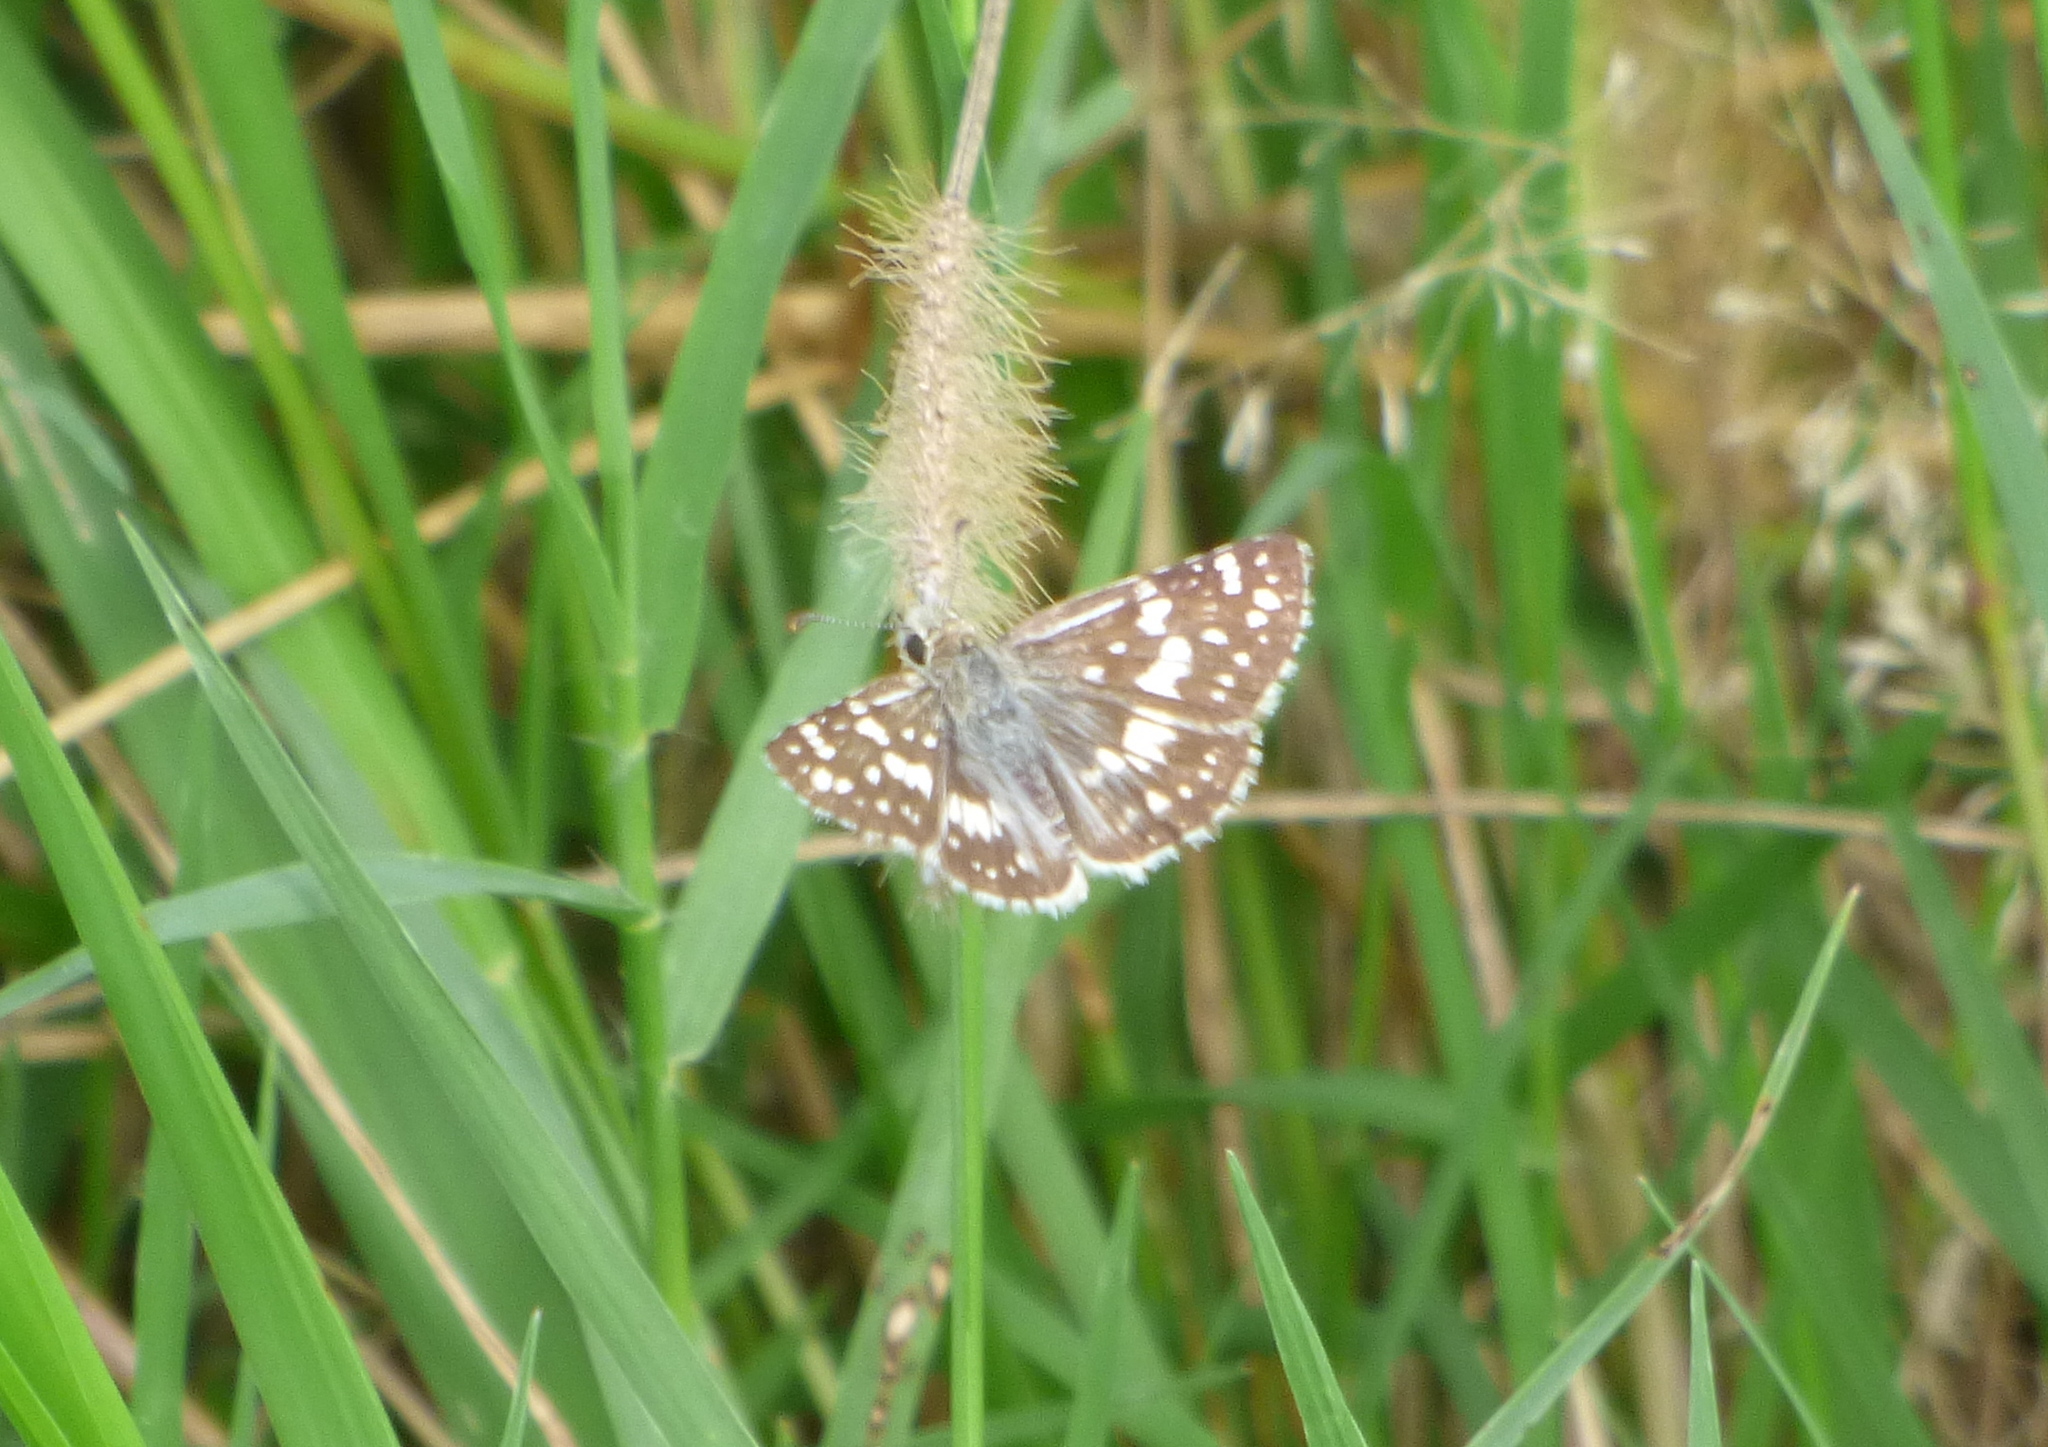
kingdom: Animalia
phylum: Arthropoda
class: Insecta
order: Lepidoptera
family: Hesperiidae
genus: Burnsius
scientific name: Burnsius orcynoides
